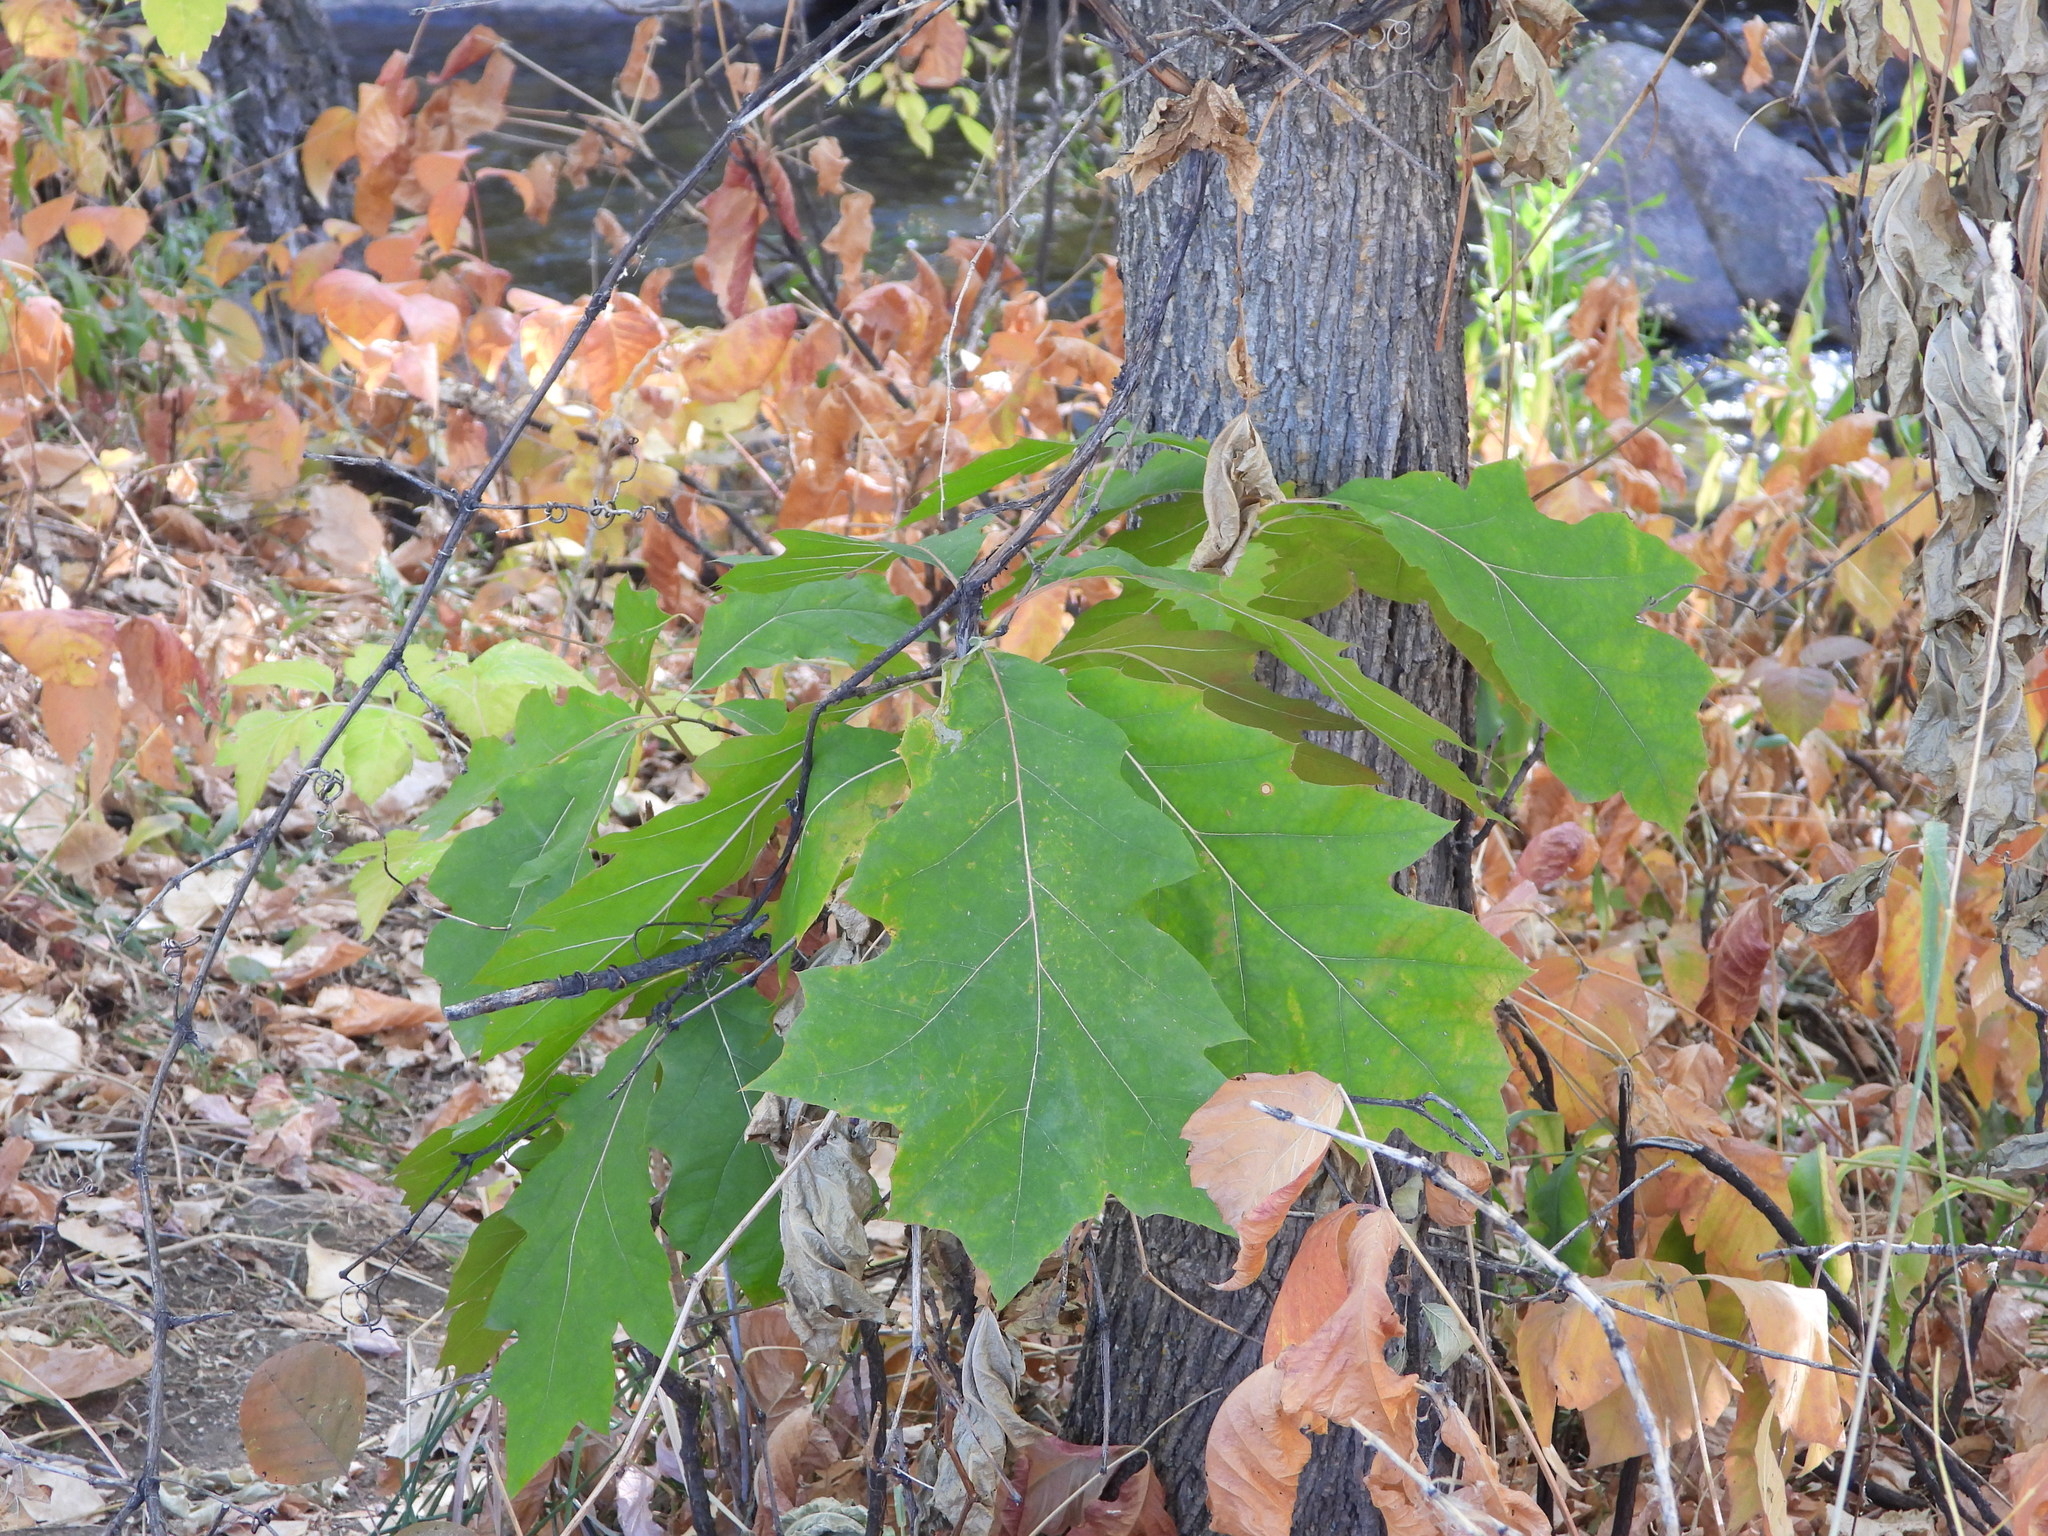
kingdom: Plantae
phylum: Tracheophyta
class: Magnoliopsida
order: Fagales
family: Fagaceae
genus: Quercus
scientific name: Quercus
